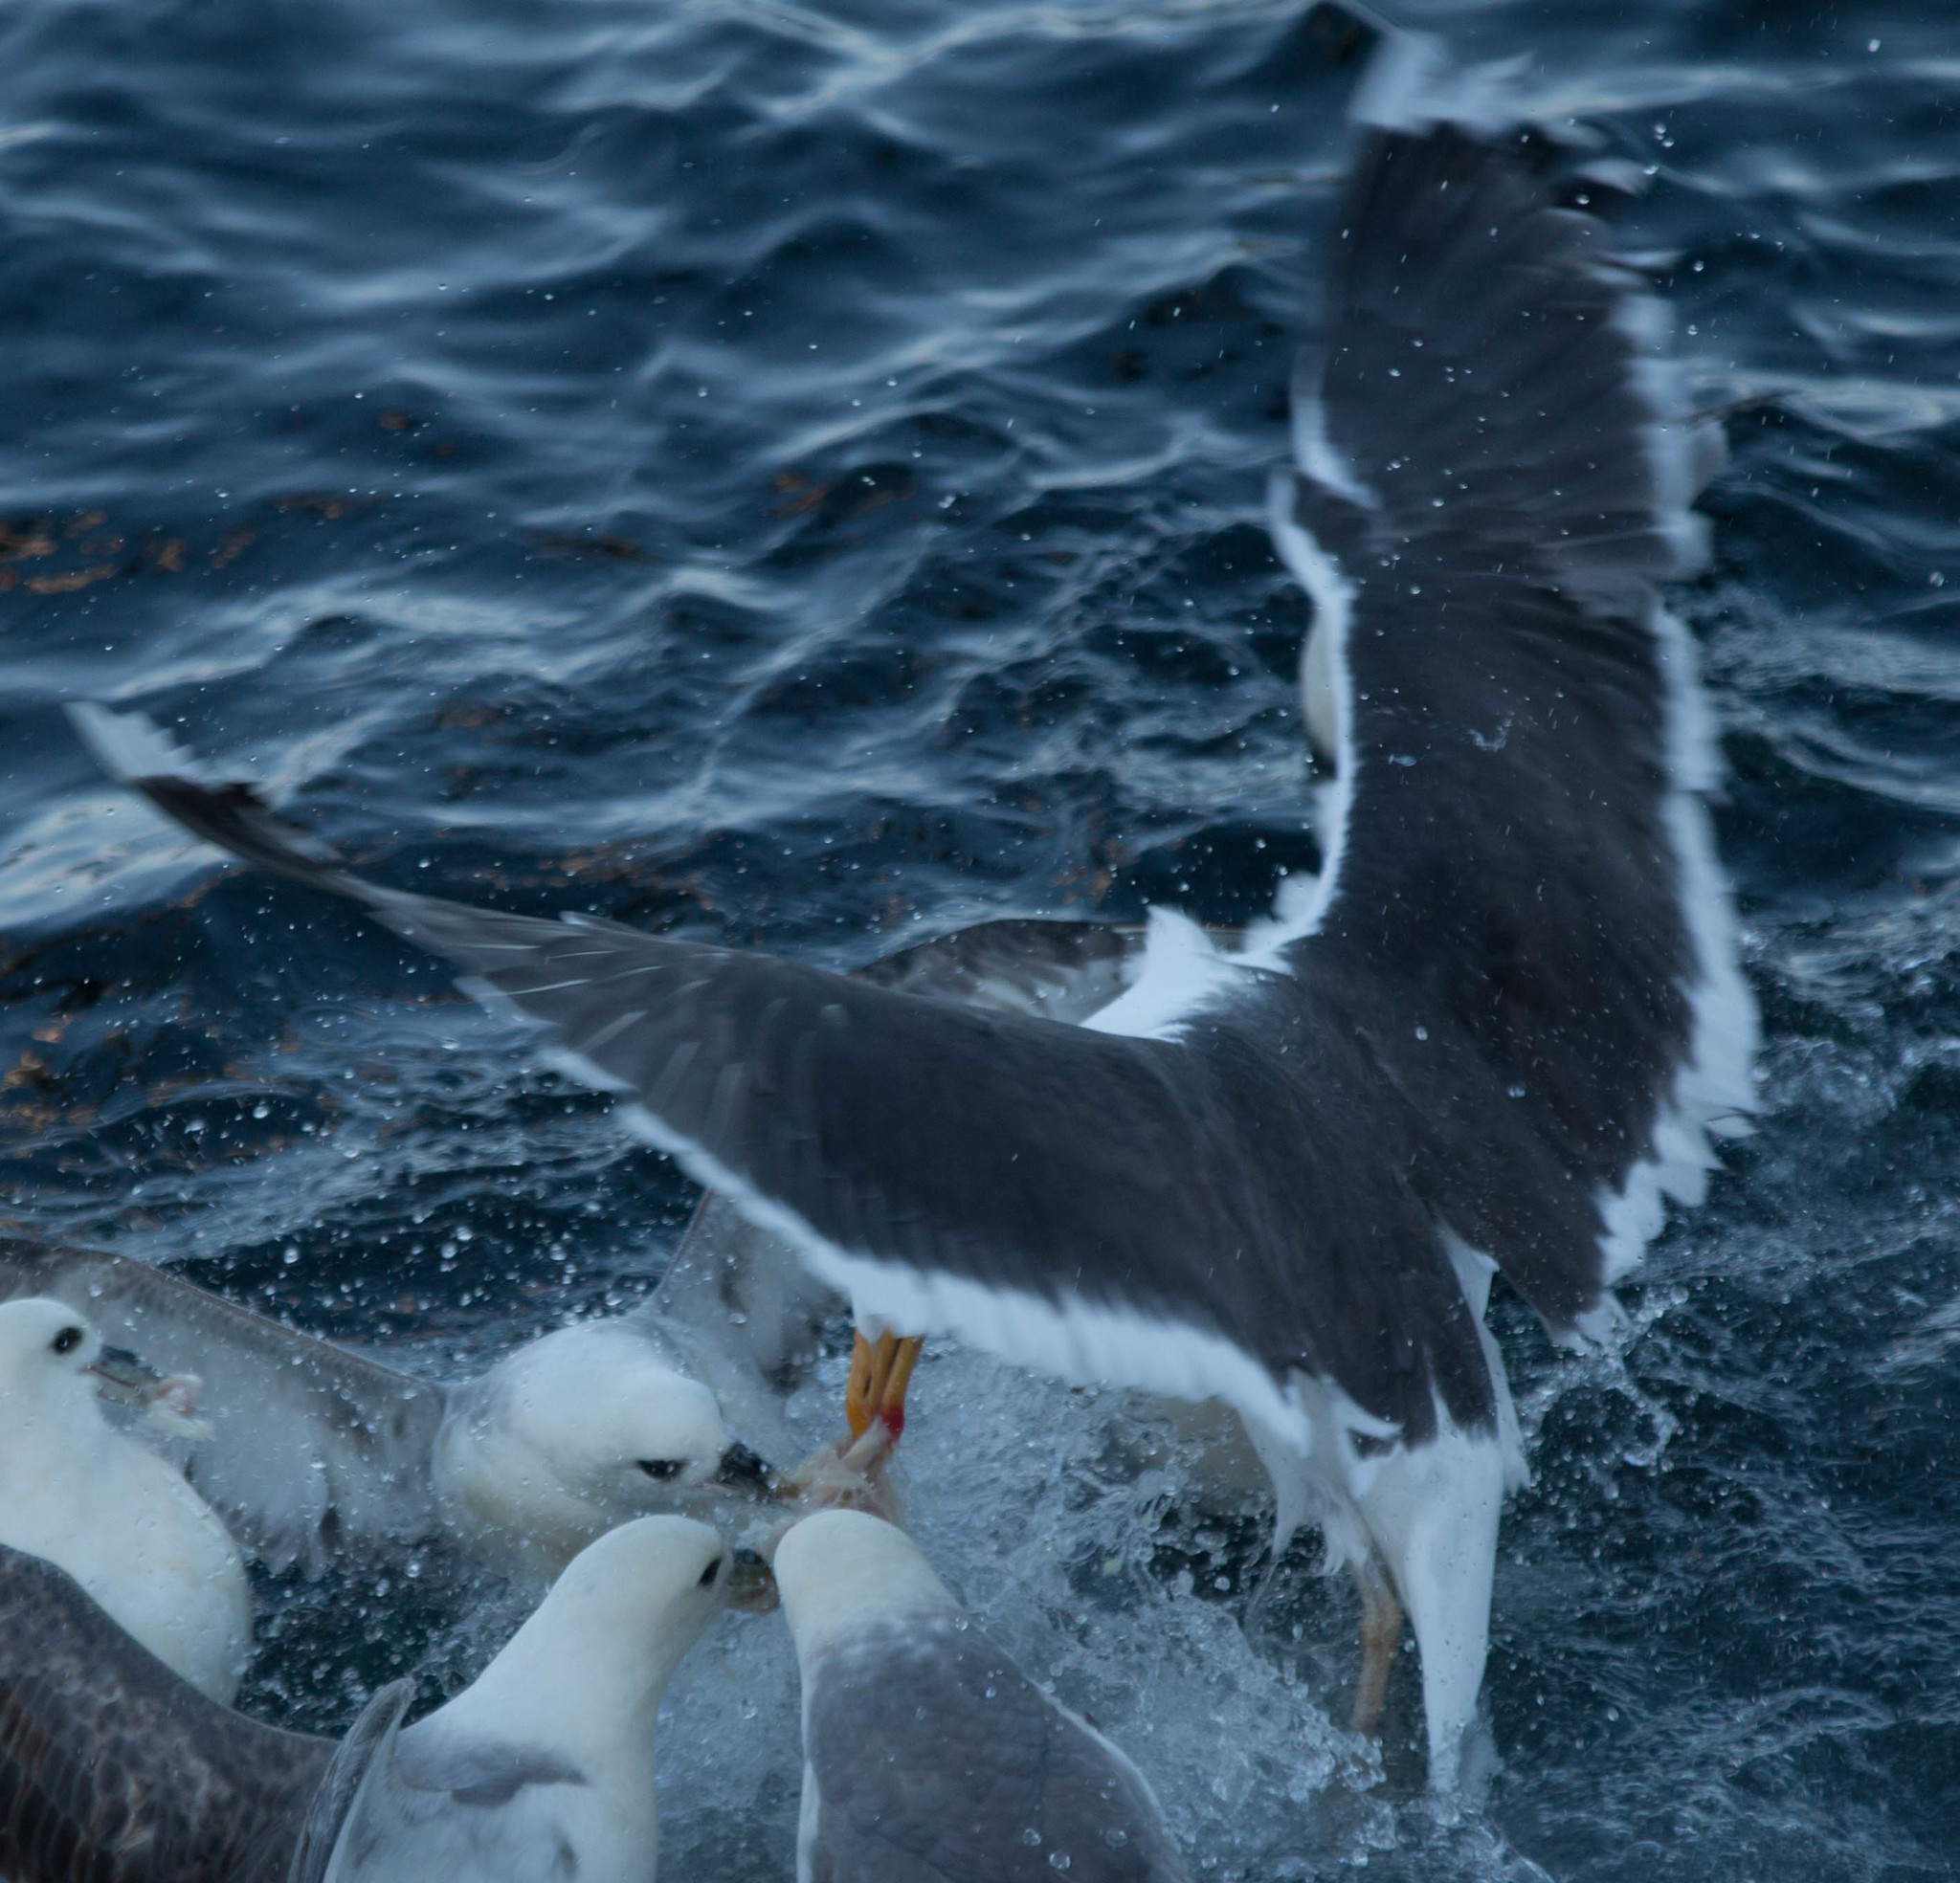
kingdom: Animalia
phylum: Chordata
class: Aves
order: Charadriiformes
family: Laridae
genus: Larus
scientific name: Larus marinus
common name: Great black-backed gull
